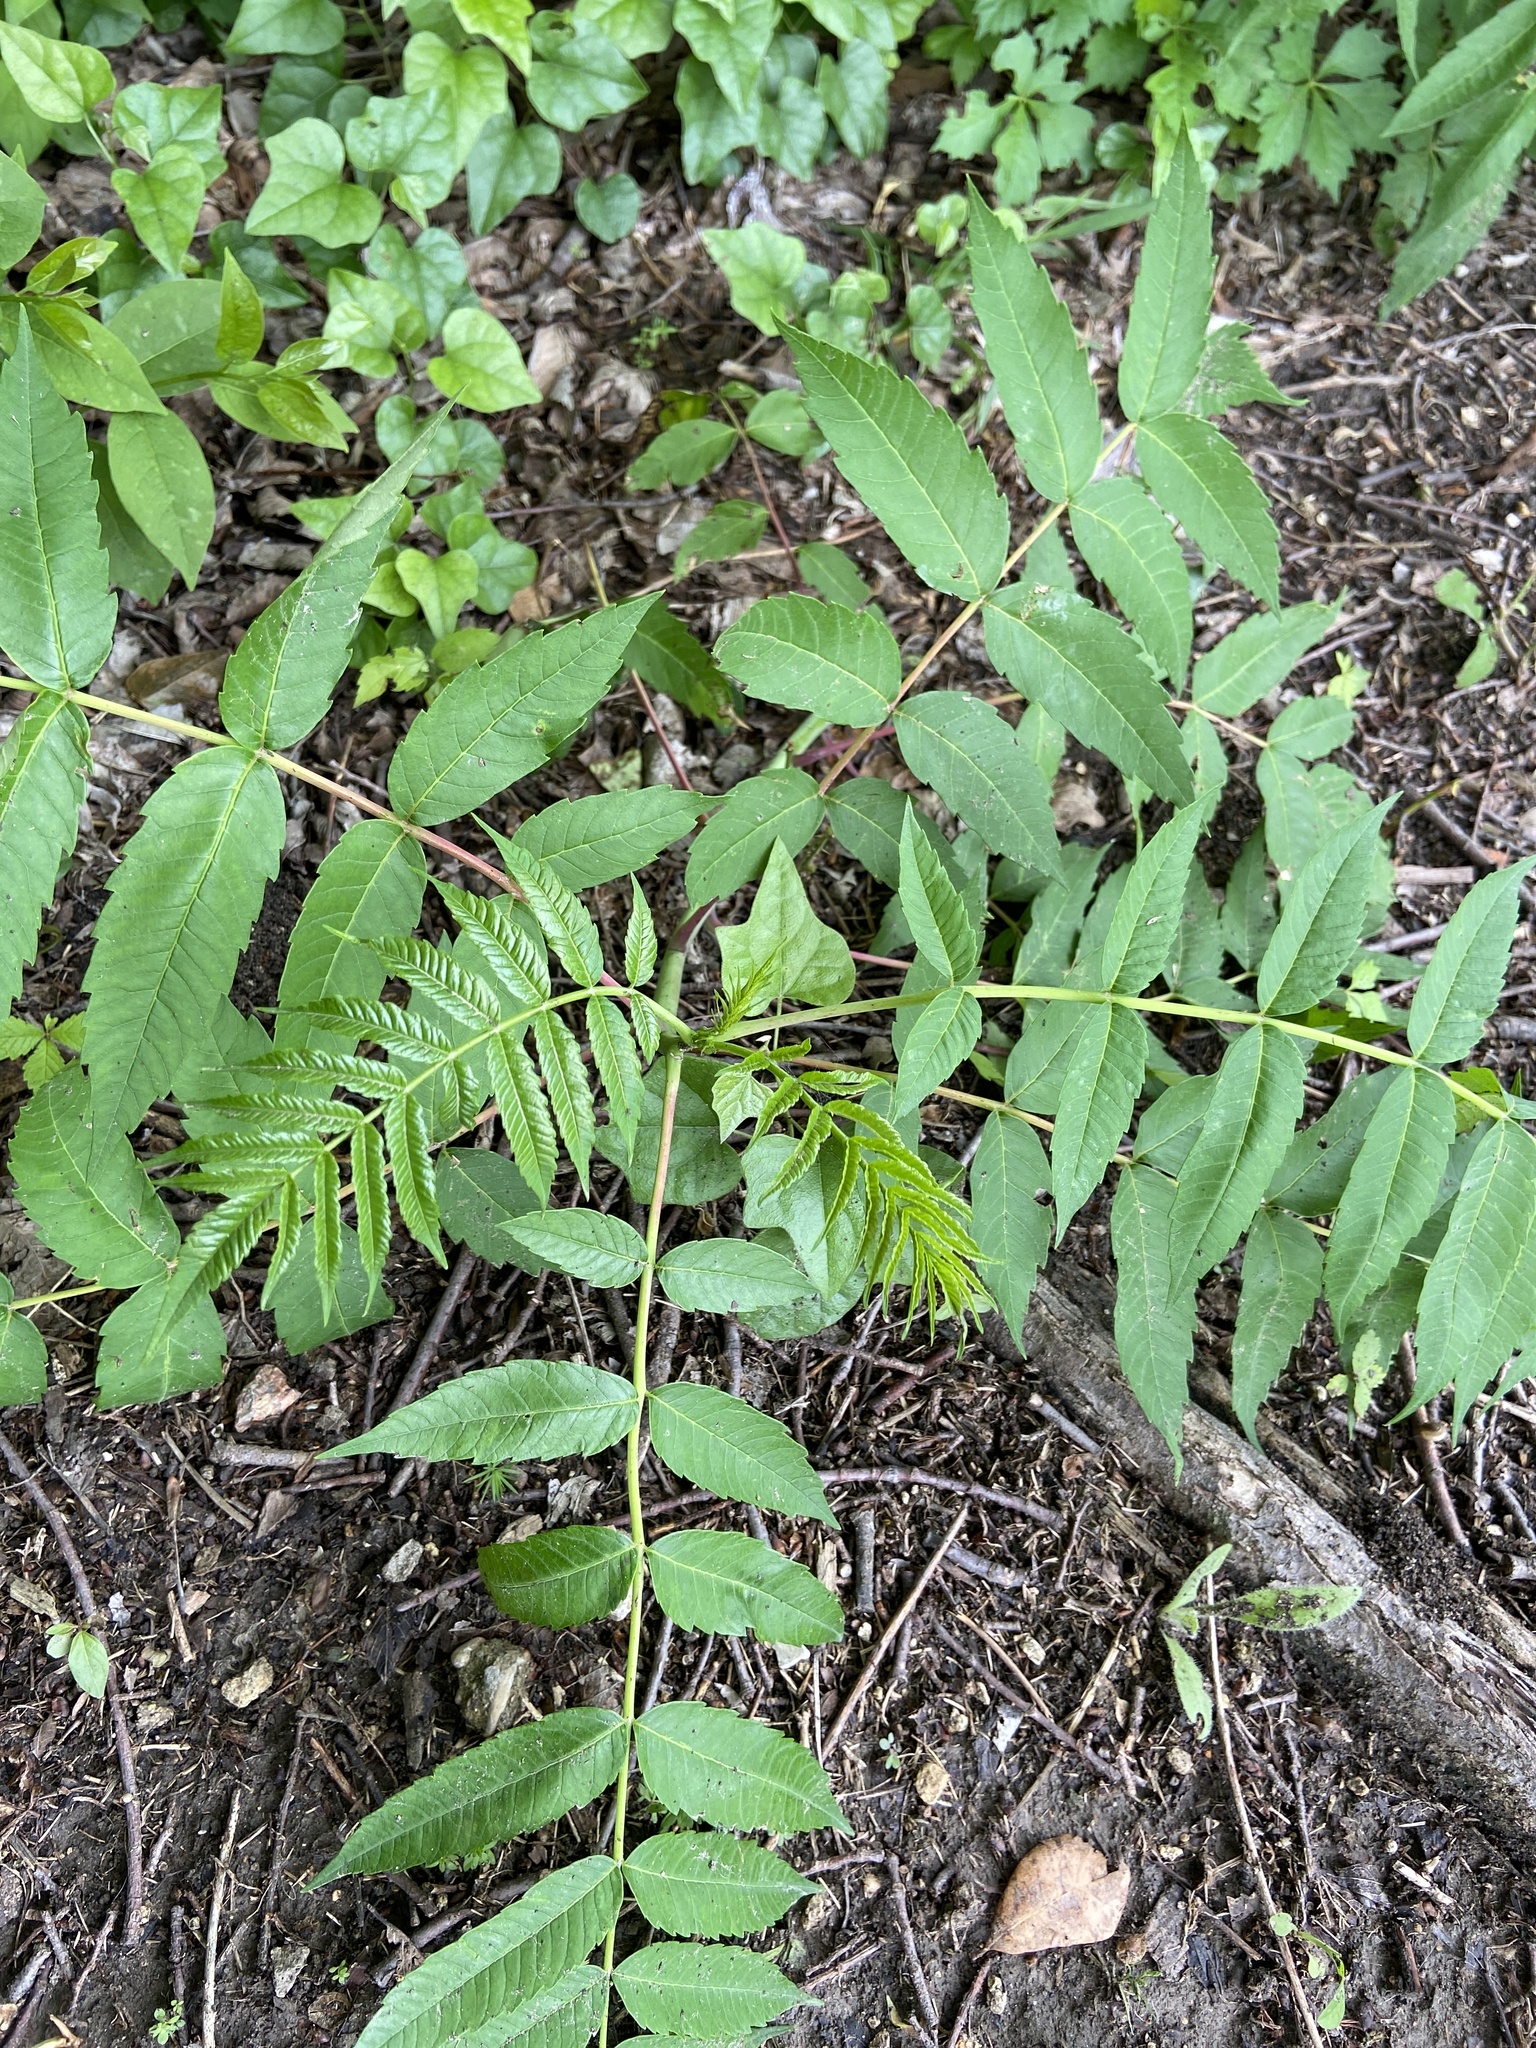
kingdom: Plantae
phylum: Tracheophyta
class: Magnoliopsida
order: Sapindales
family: Anacardiaceae
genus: Rhus
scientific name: Rhus glabra
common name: Scarlet sumac
